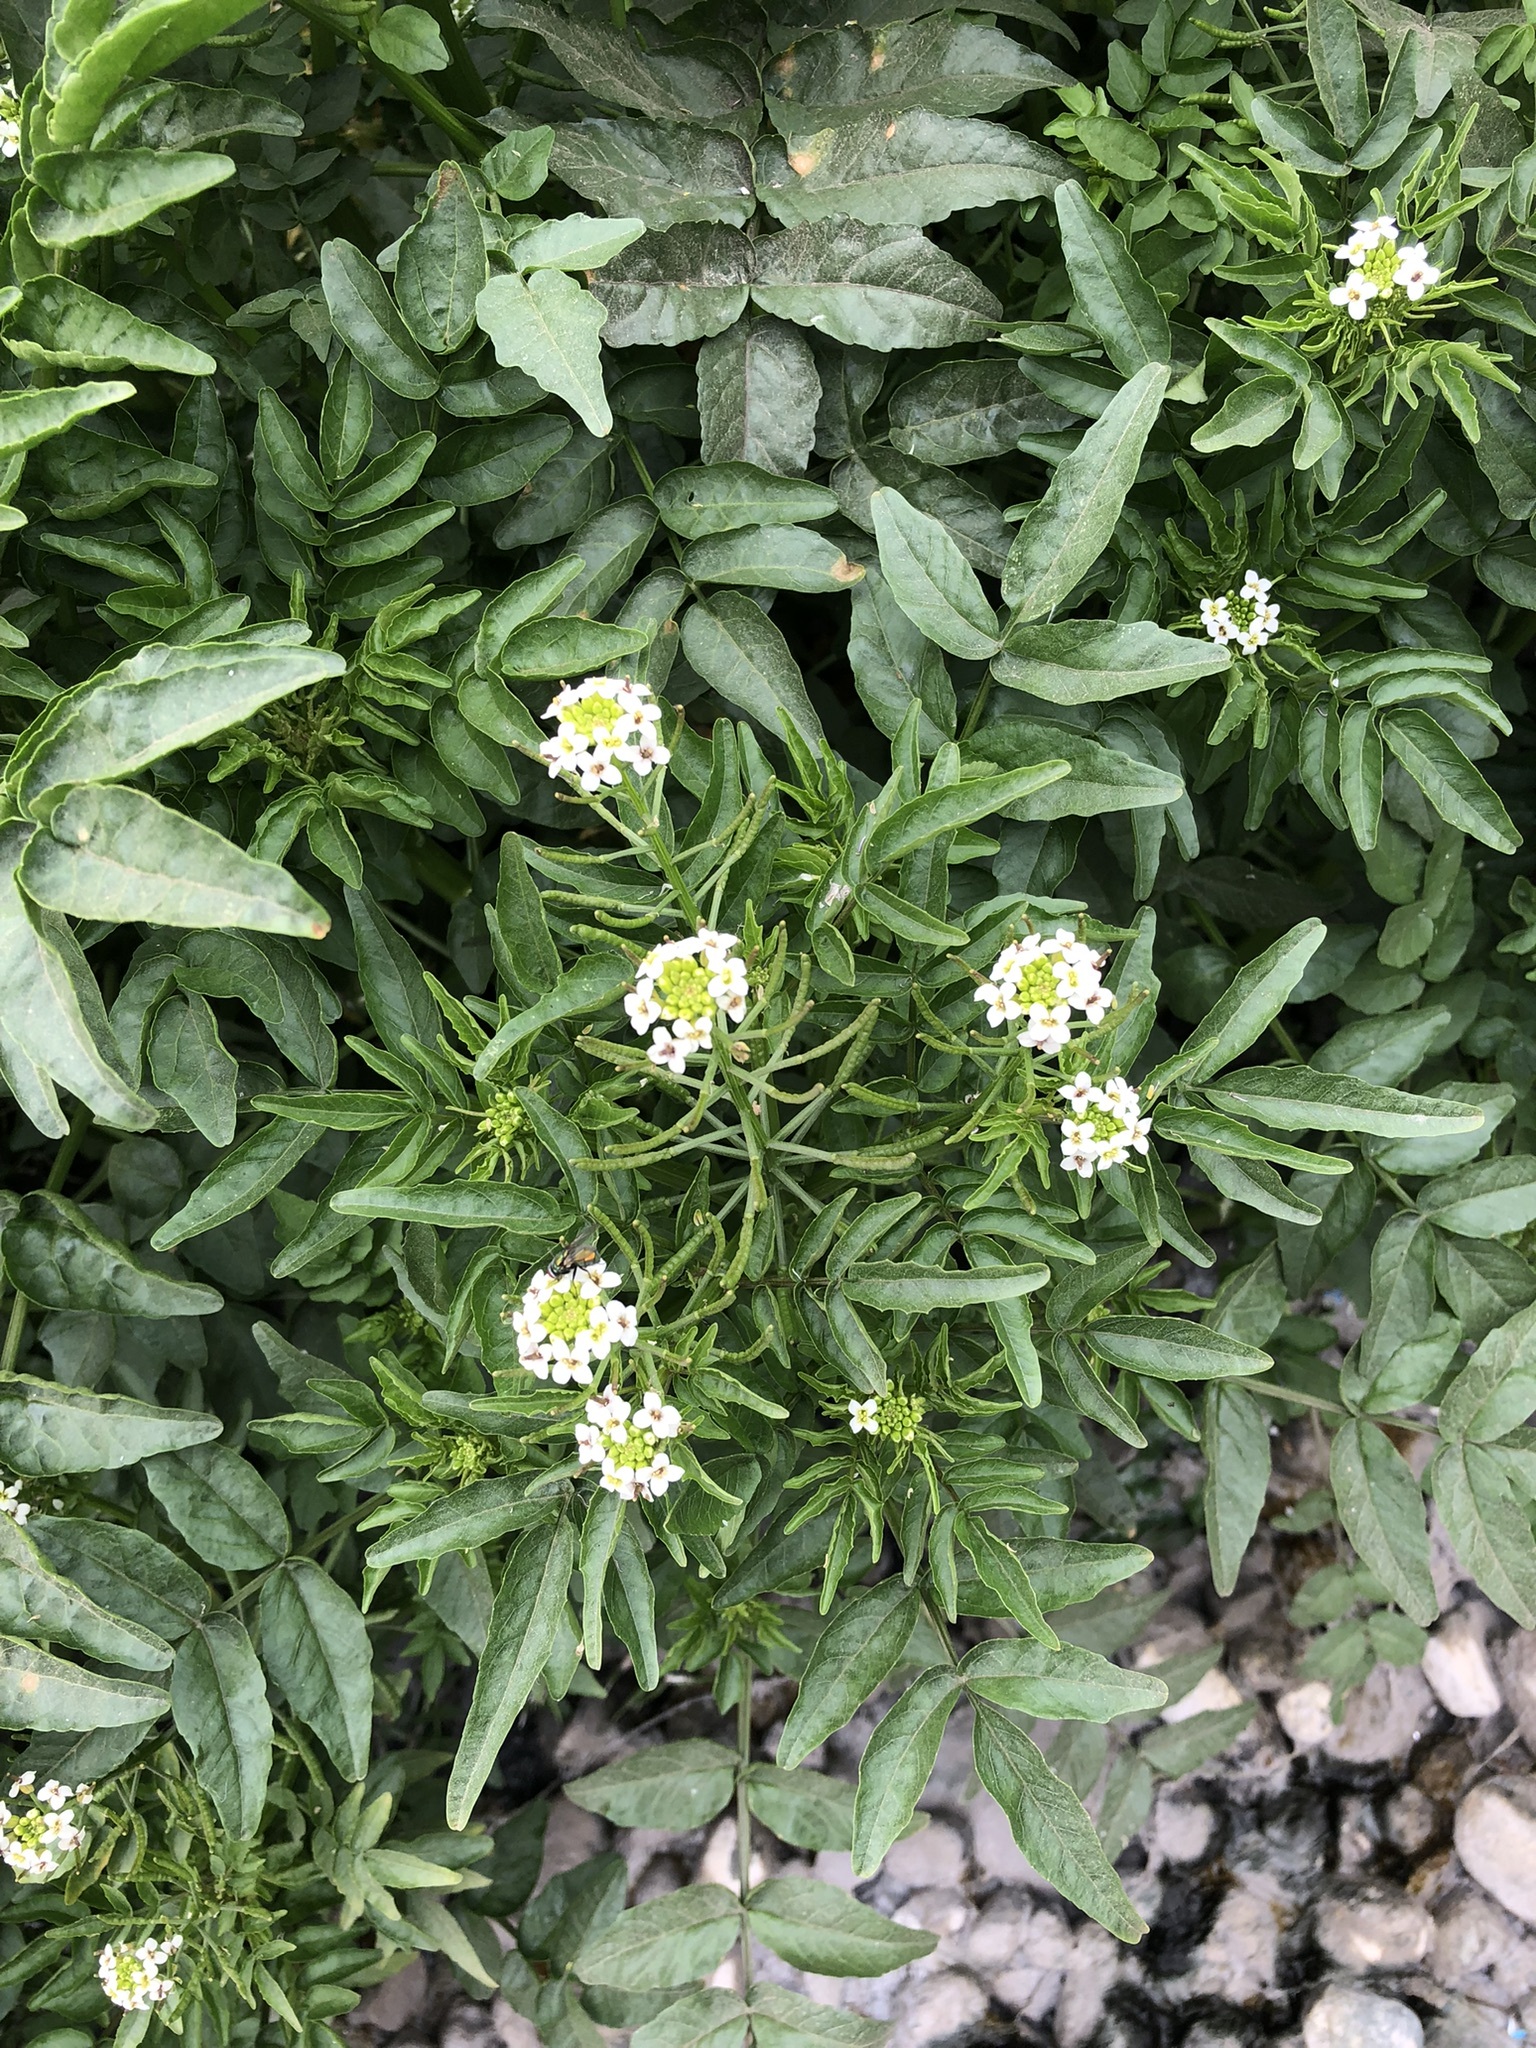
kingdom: Plantae
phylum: Tracheophyta
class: Magnoliopsida
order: Brassicales
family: Brassicaceae
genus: Nasturtium
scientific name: Nasturtium officinale
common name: Watercress
